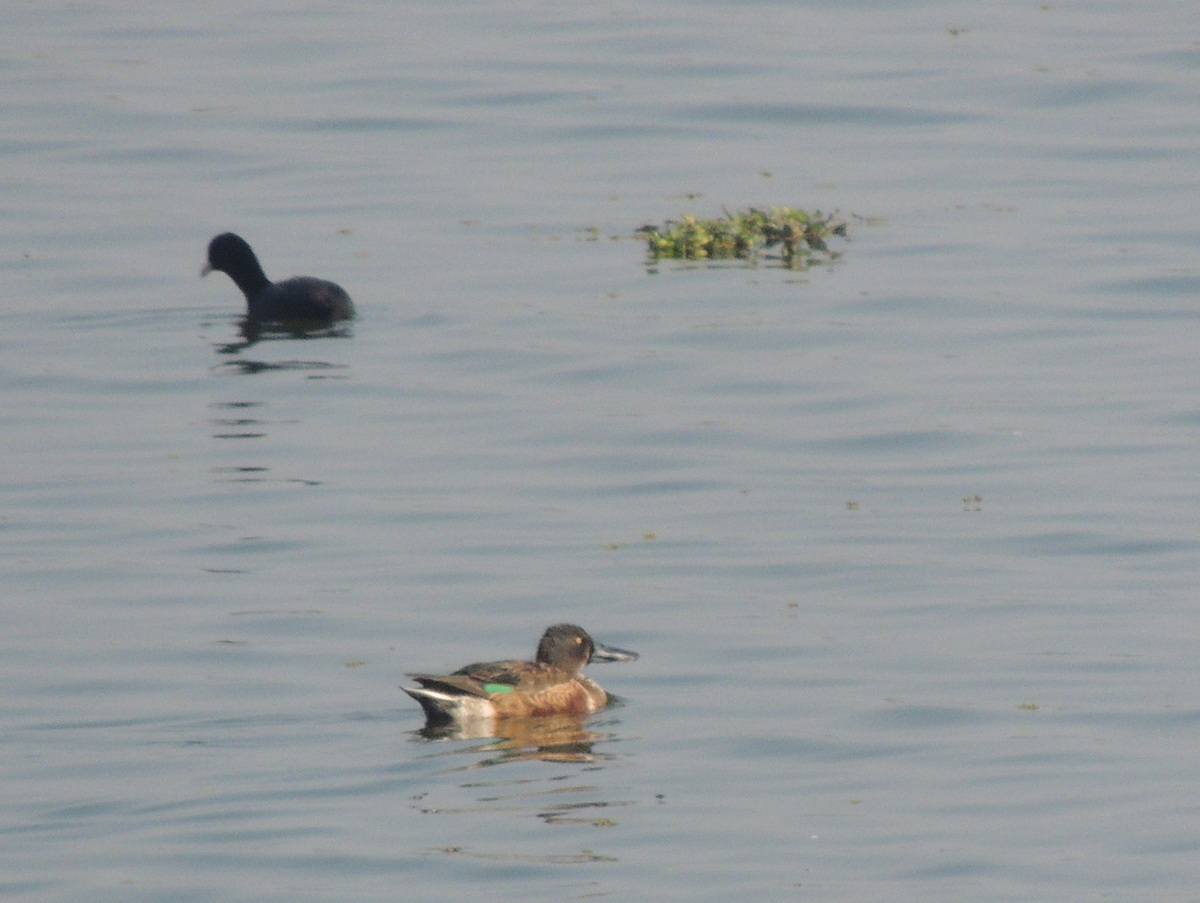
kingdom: Animalia
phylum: Chordata
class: Aves
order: Anseriformes
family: Anatidae
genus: Spatula
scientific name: Spatula clypeata
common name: Northern shoveler
